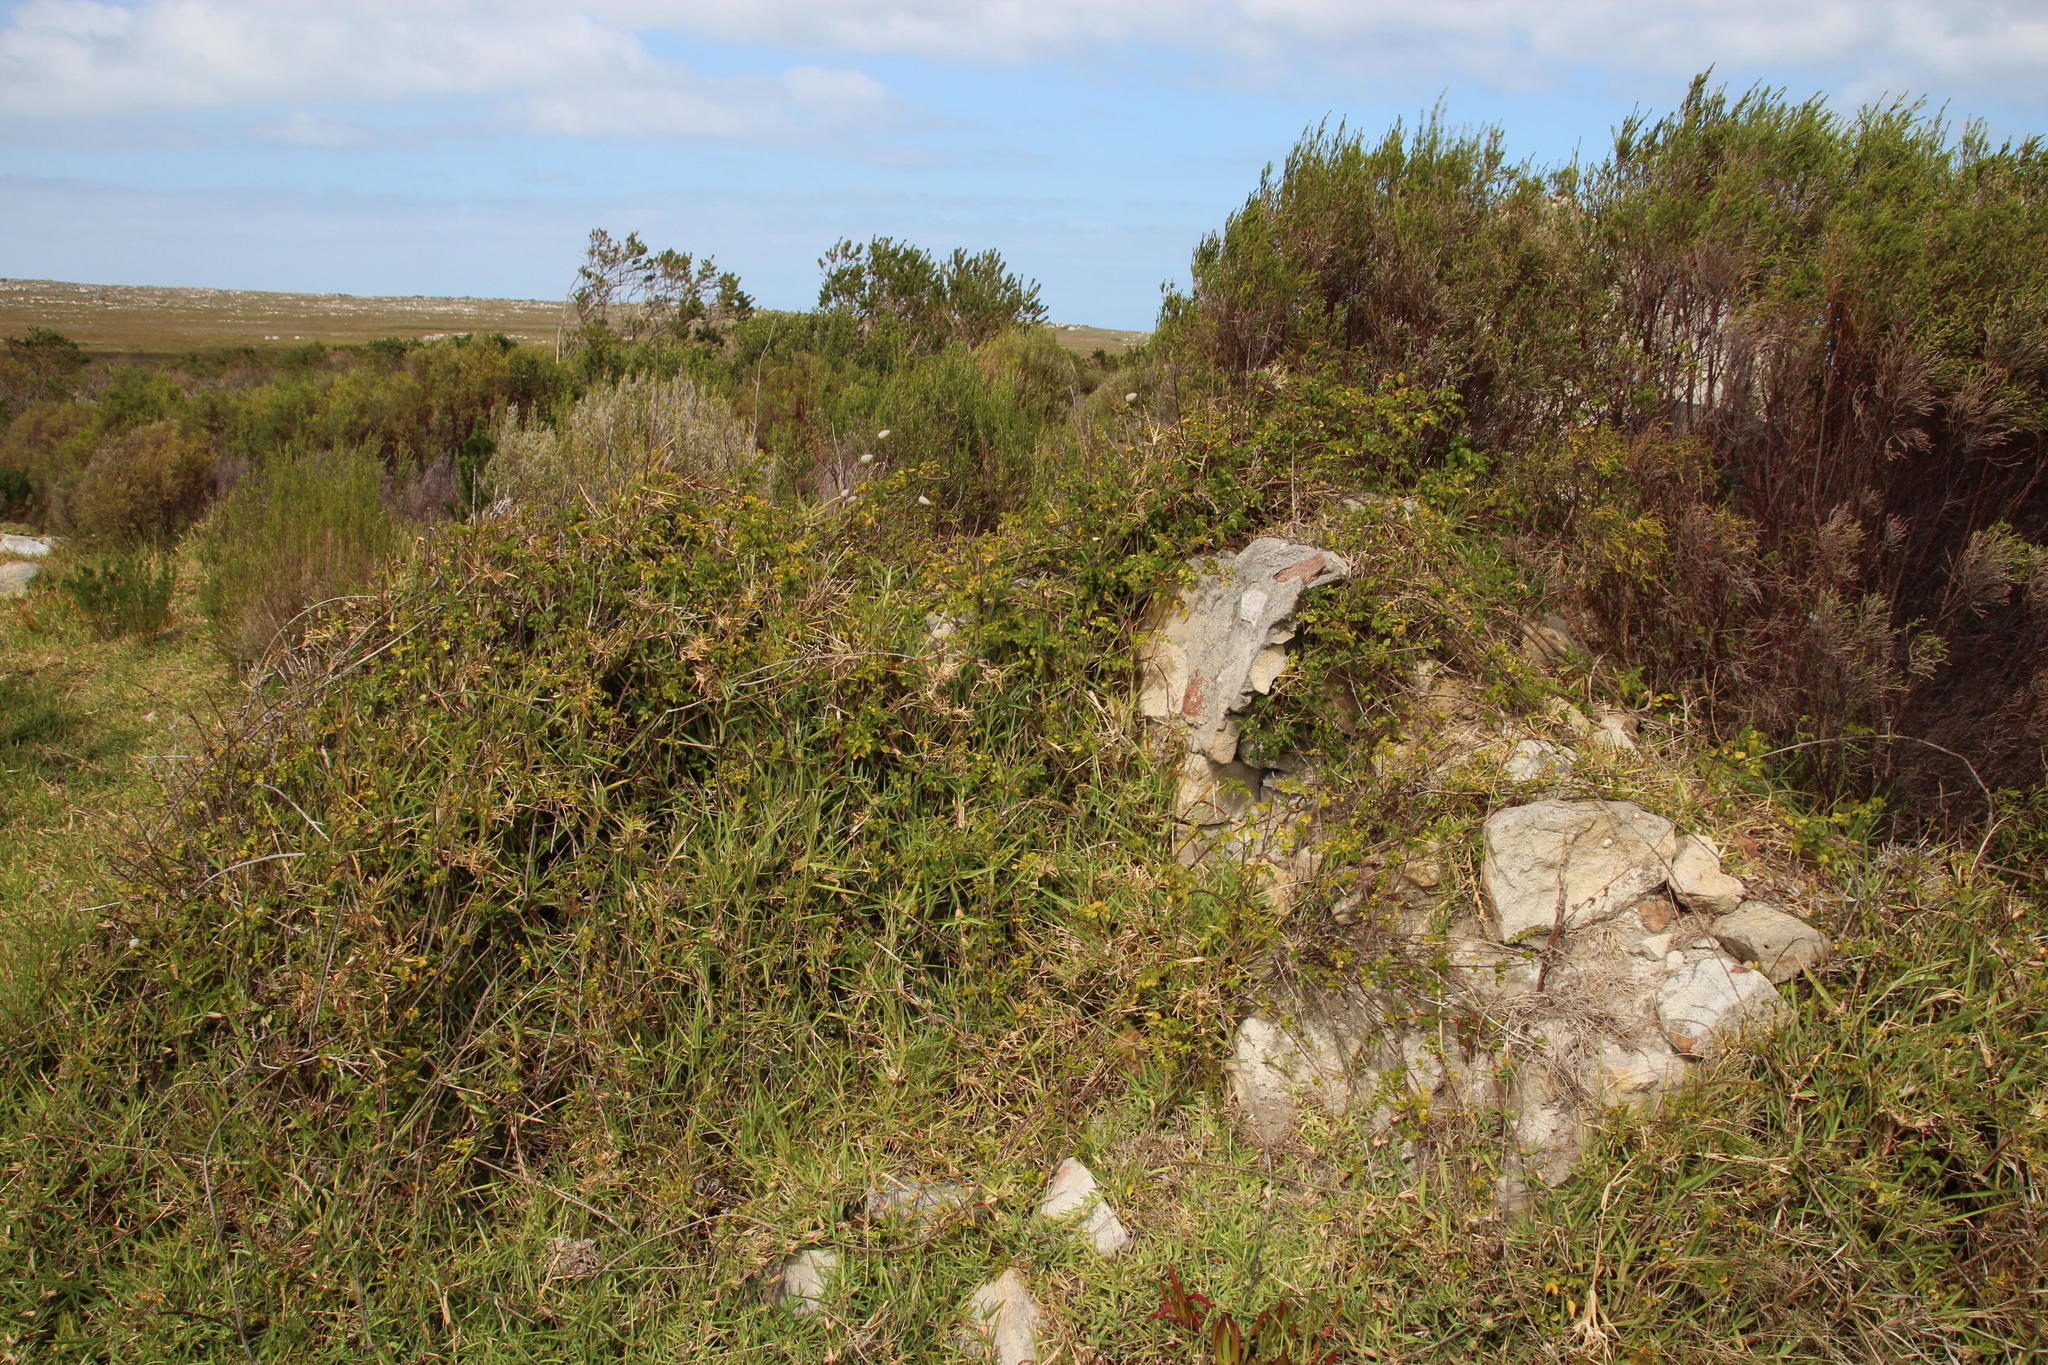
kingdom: Plantae
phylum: Tracheophyta
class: Liliopsida
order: Poales
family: Poaceae
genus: Stenotaphrum
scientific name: Stenotaphrum secundatum
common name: St. augustine grass
